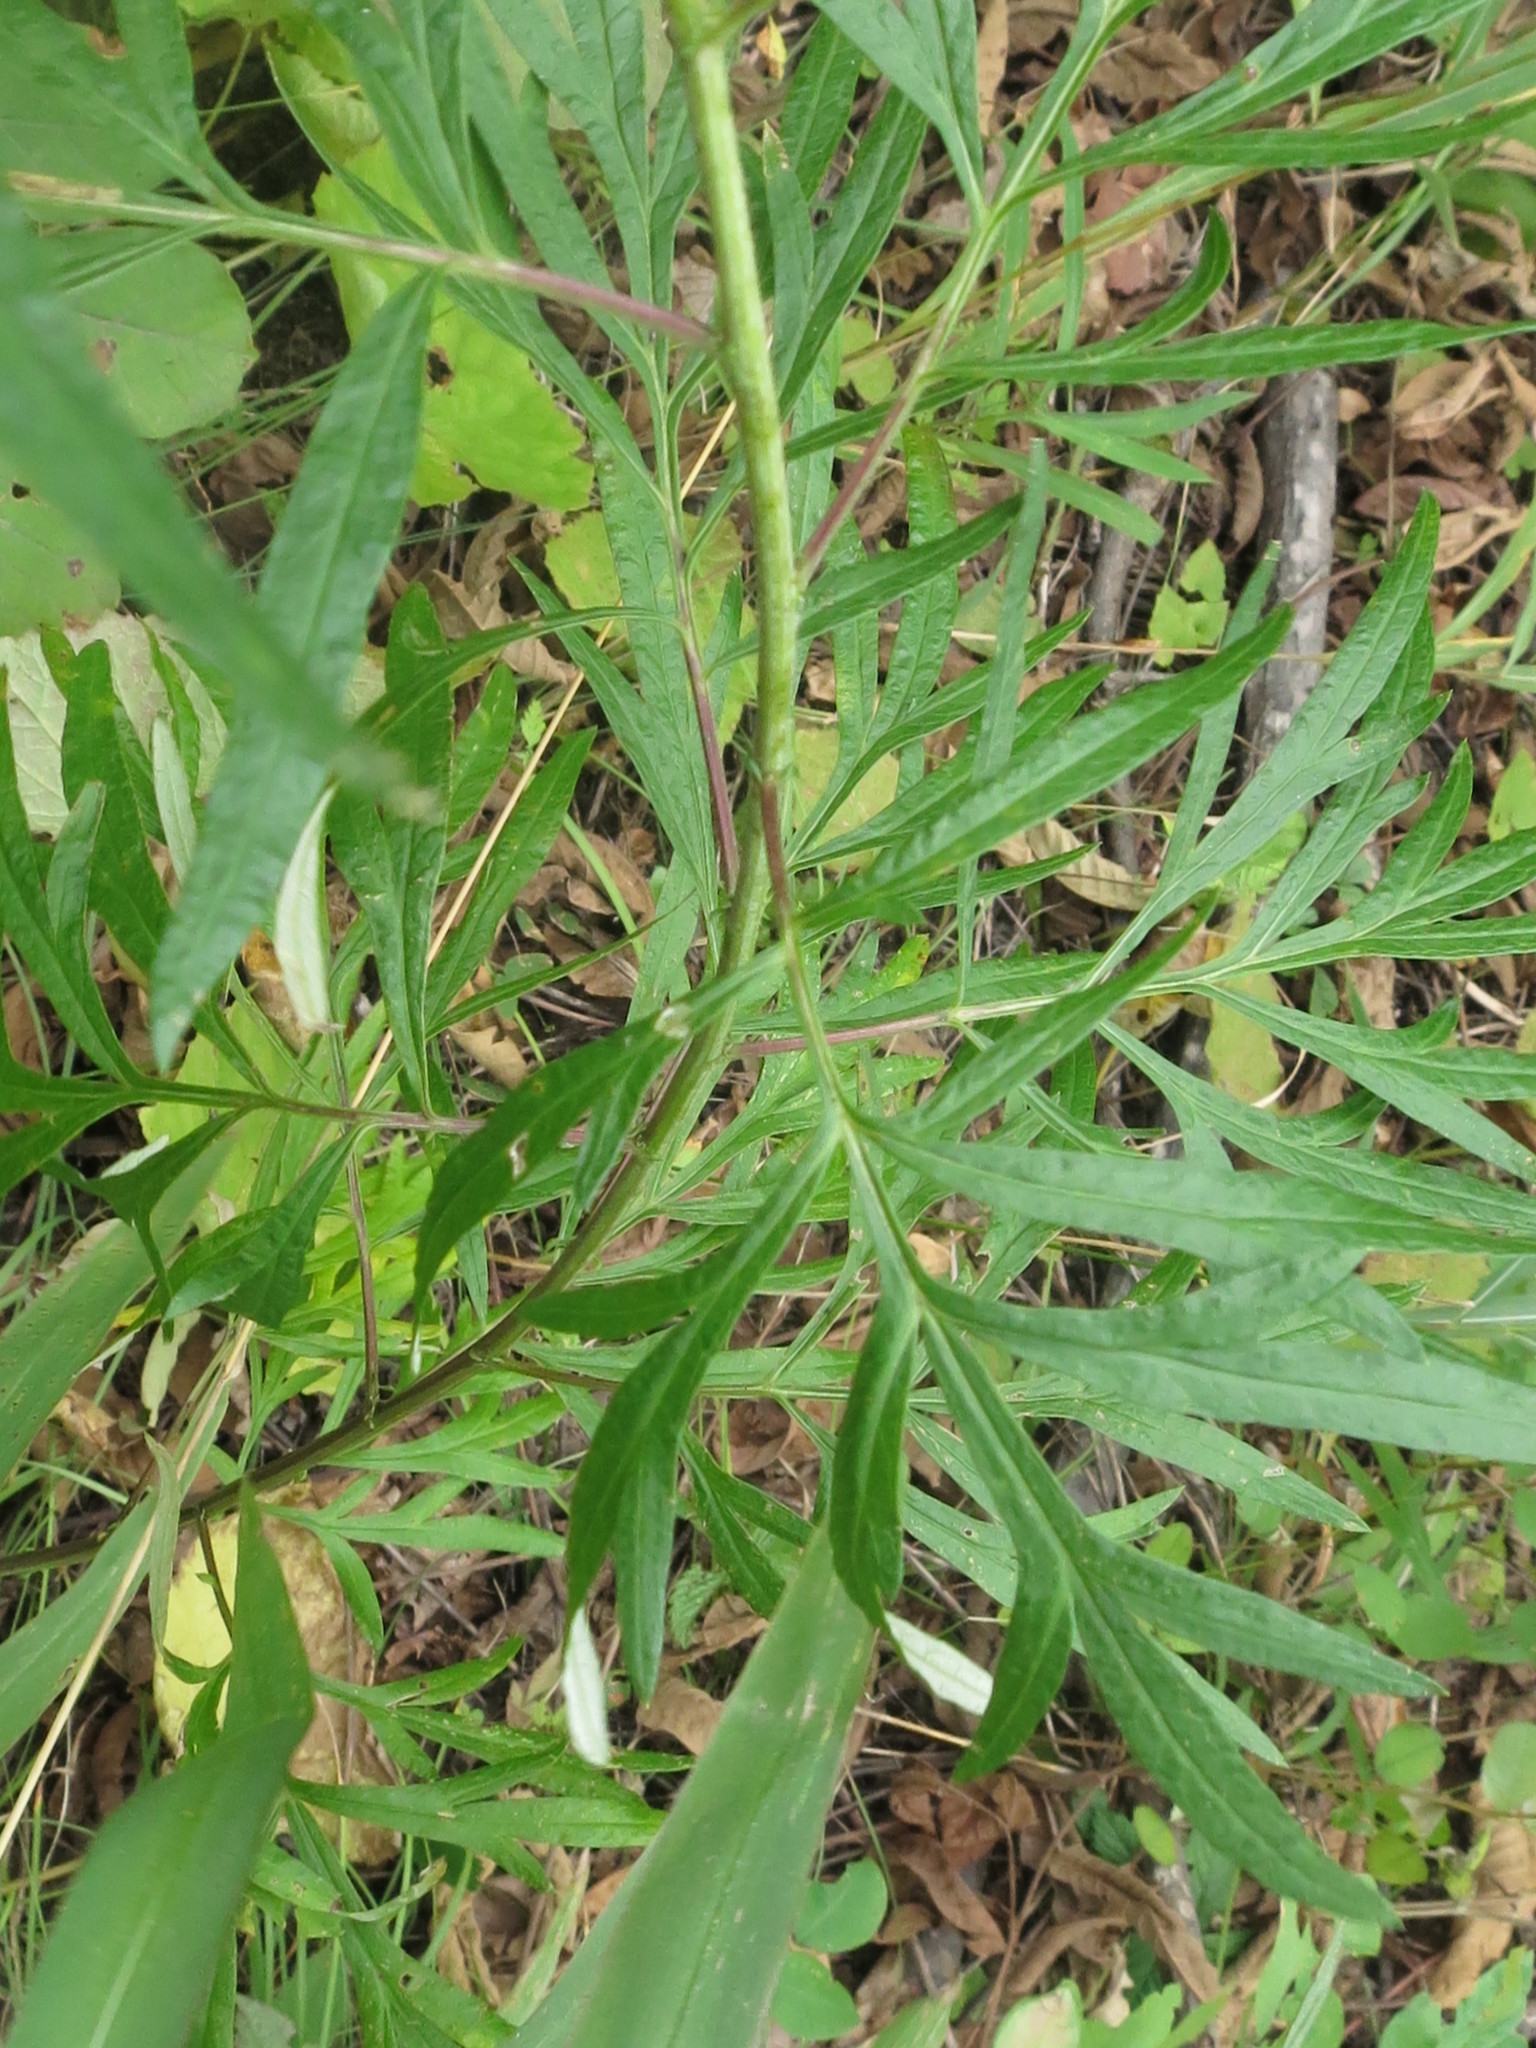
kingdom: Plantae
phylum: Tracheophyta
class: Magnoliopsida
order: Asterales
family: Asteraceae
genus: Artemisia
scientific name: Artemisia rubripes
